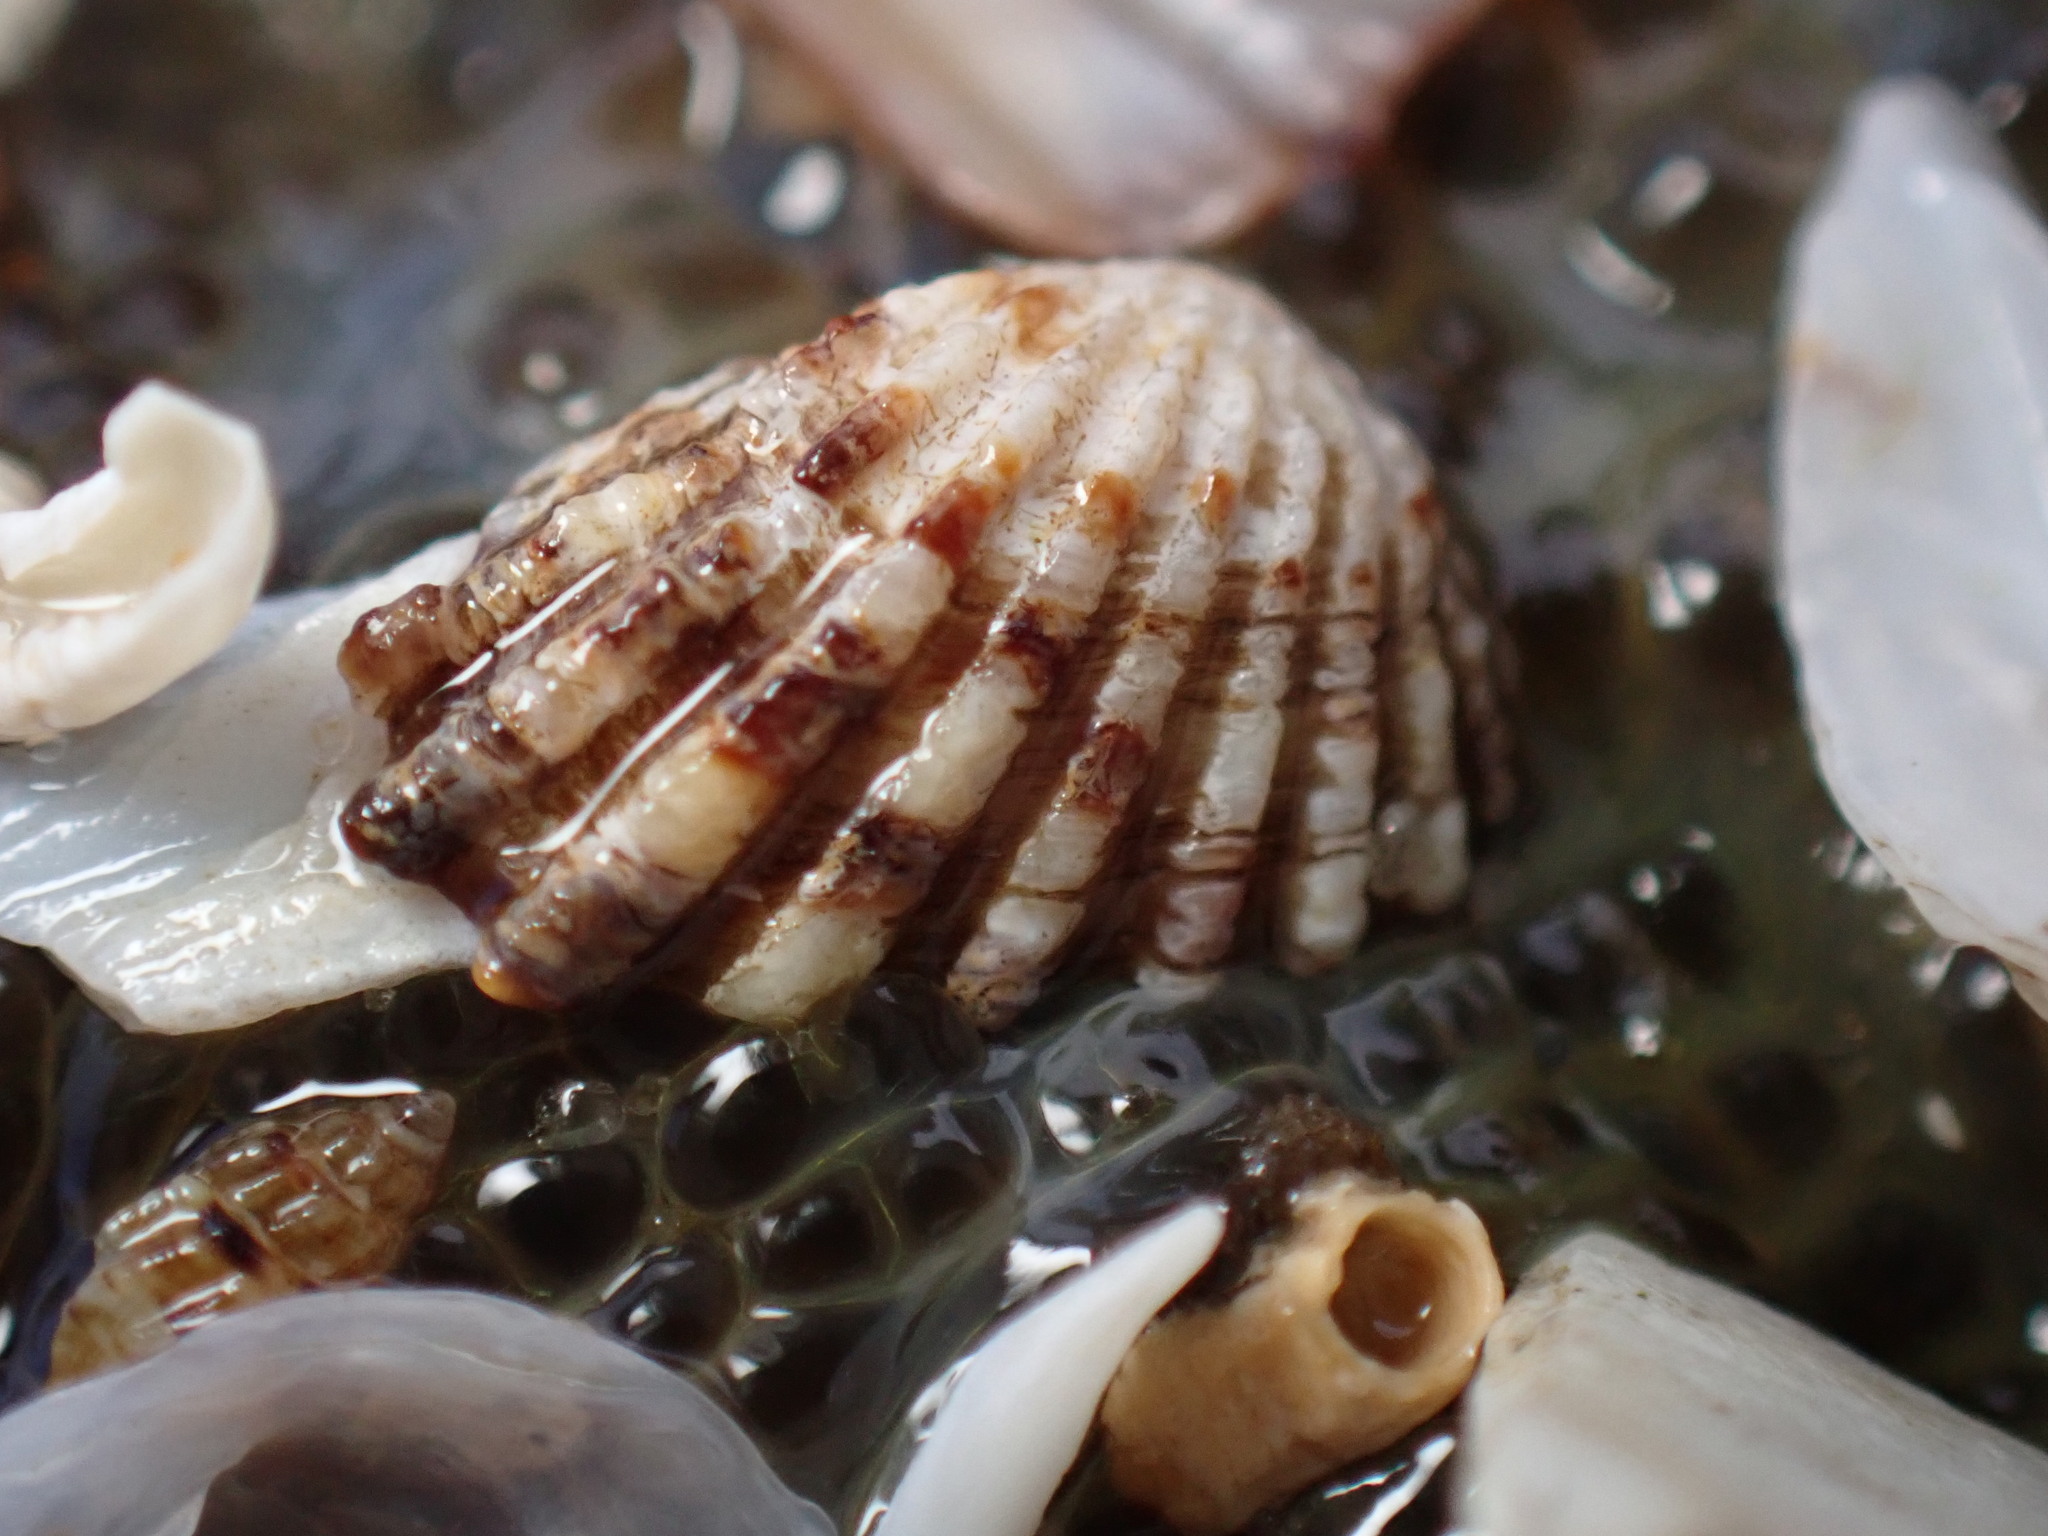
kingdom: Animalia
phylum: Mollusca
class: Bivalvia
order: Carditida
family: Carditidae
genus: Glans
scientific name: Glans carpenteri
